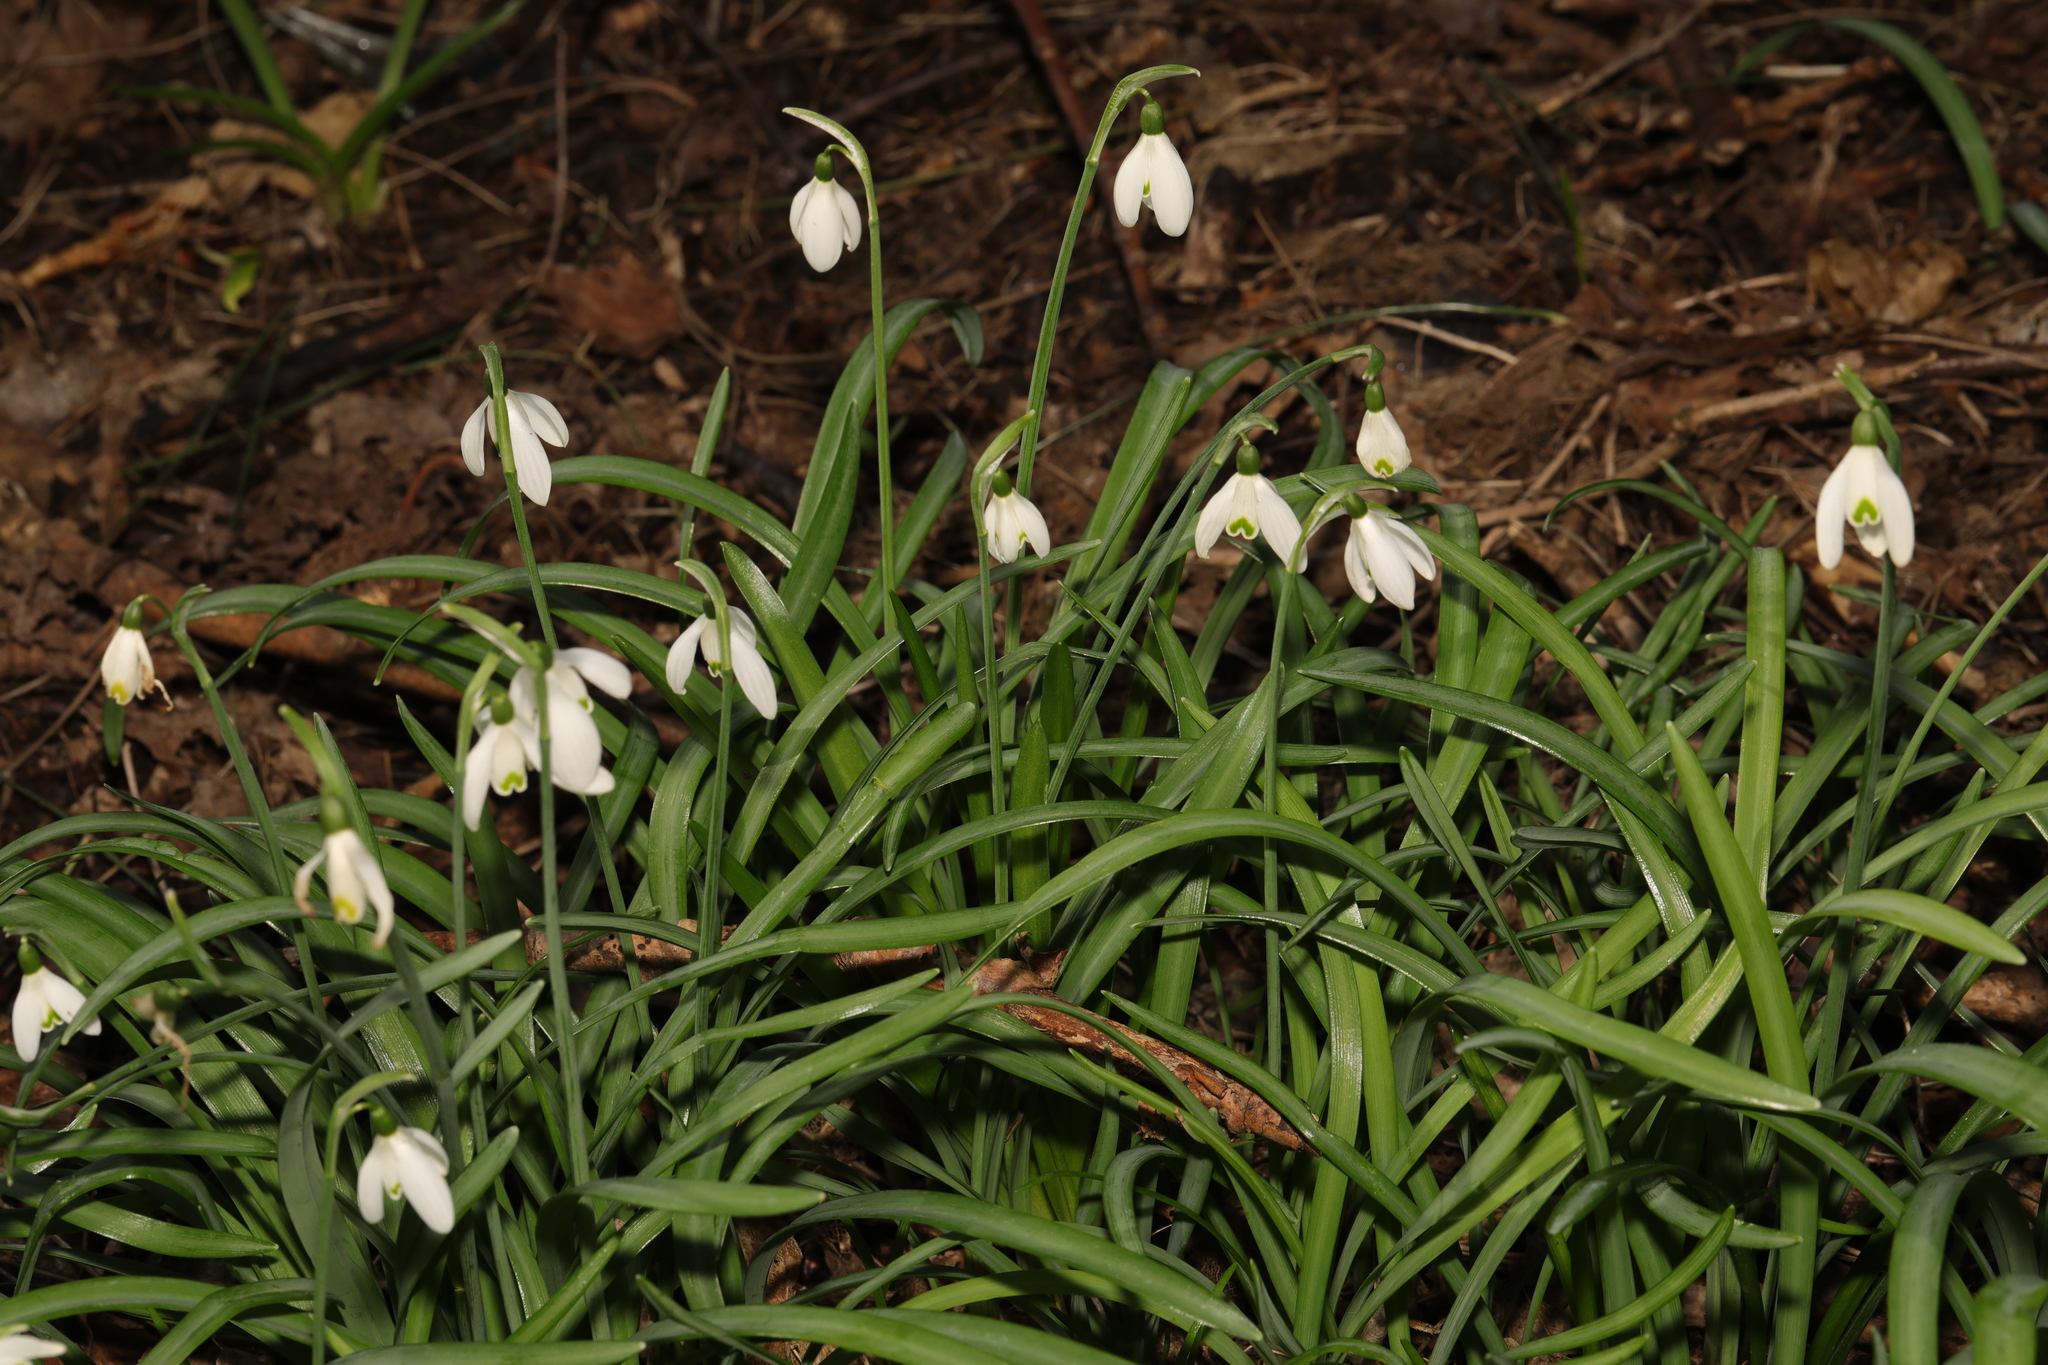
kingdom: Plantae
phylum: Tracheophyta
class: Liliopsida
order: Asparagales
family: Amaryllidaceae
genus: Galanthus
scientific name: Galanthus nivalis
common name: Snowdrop
